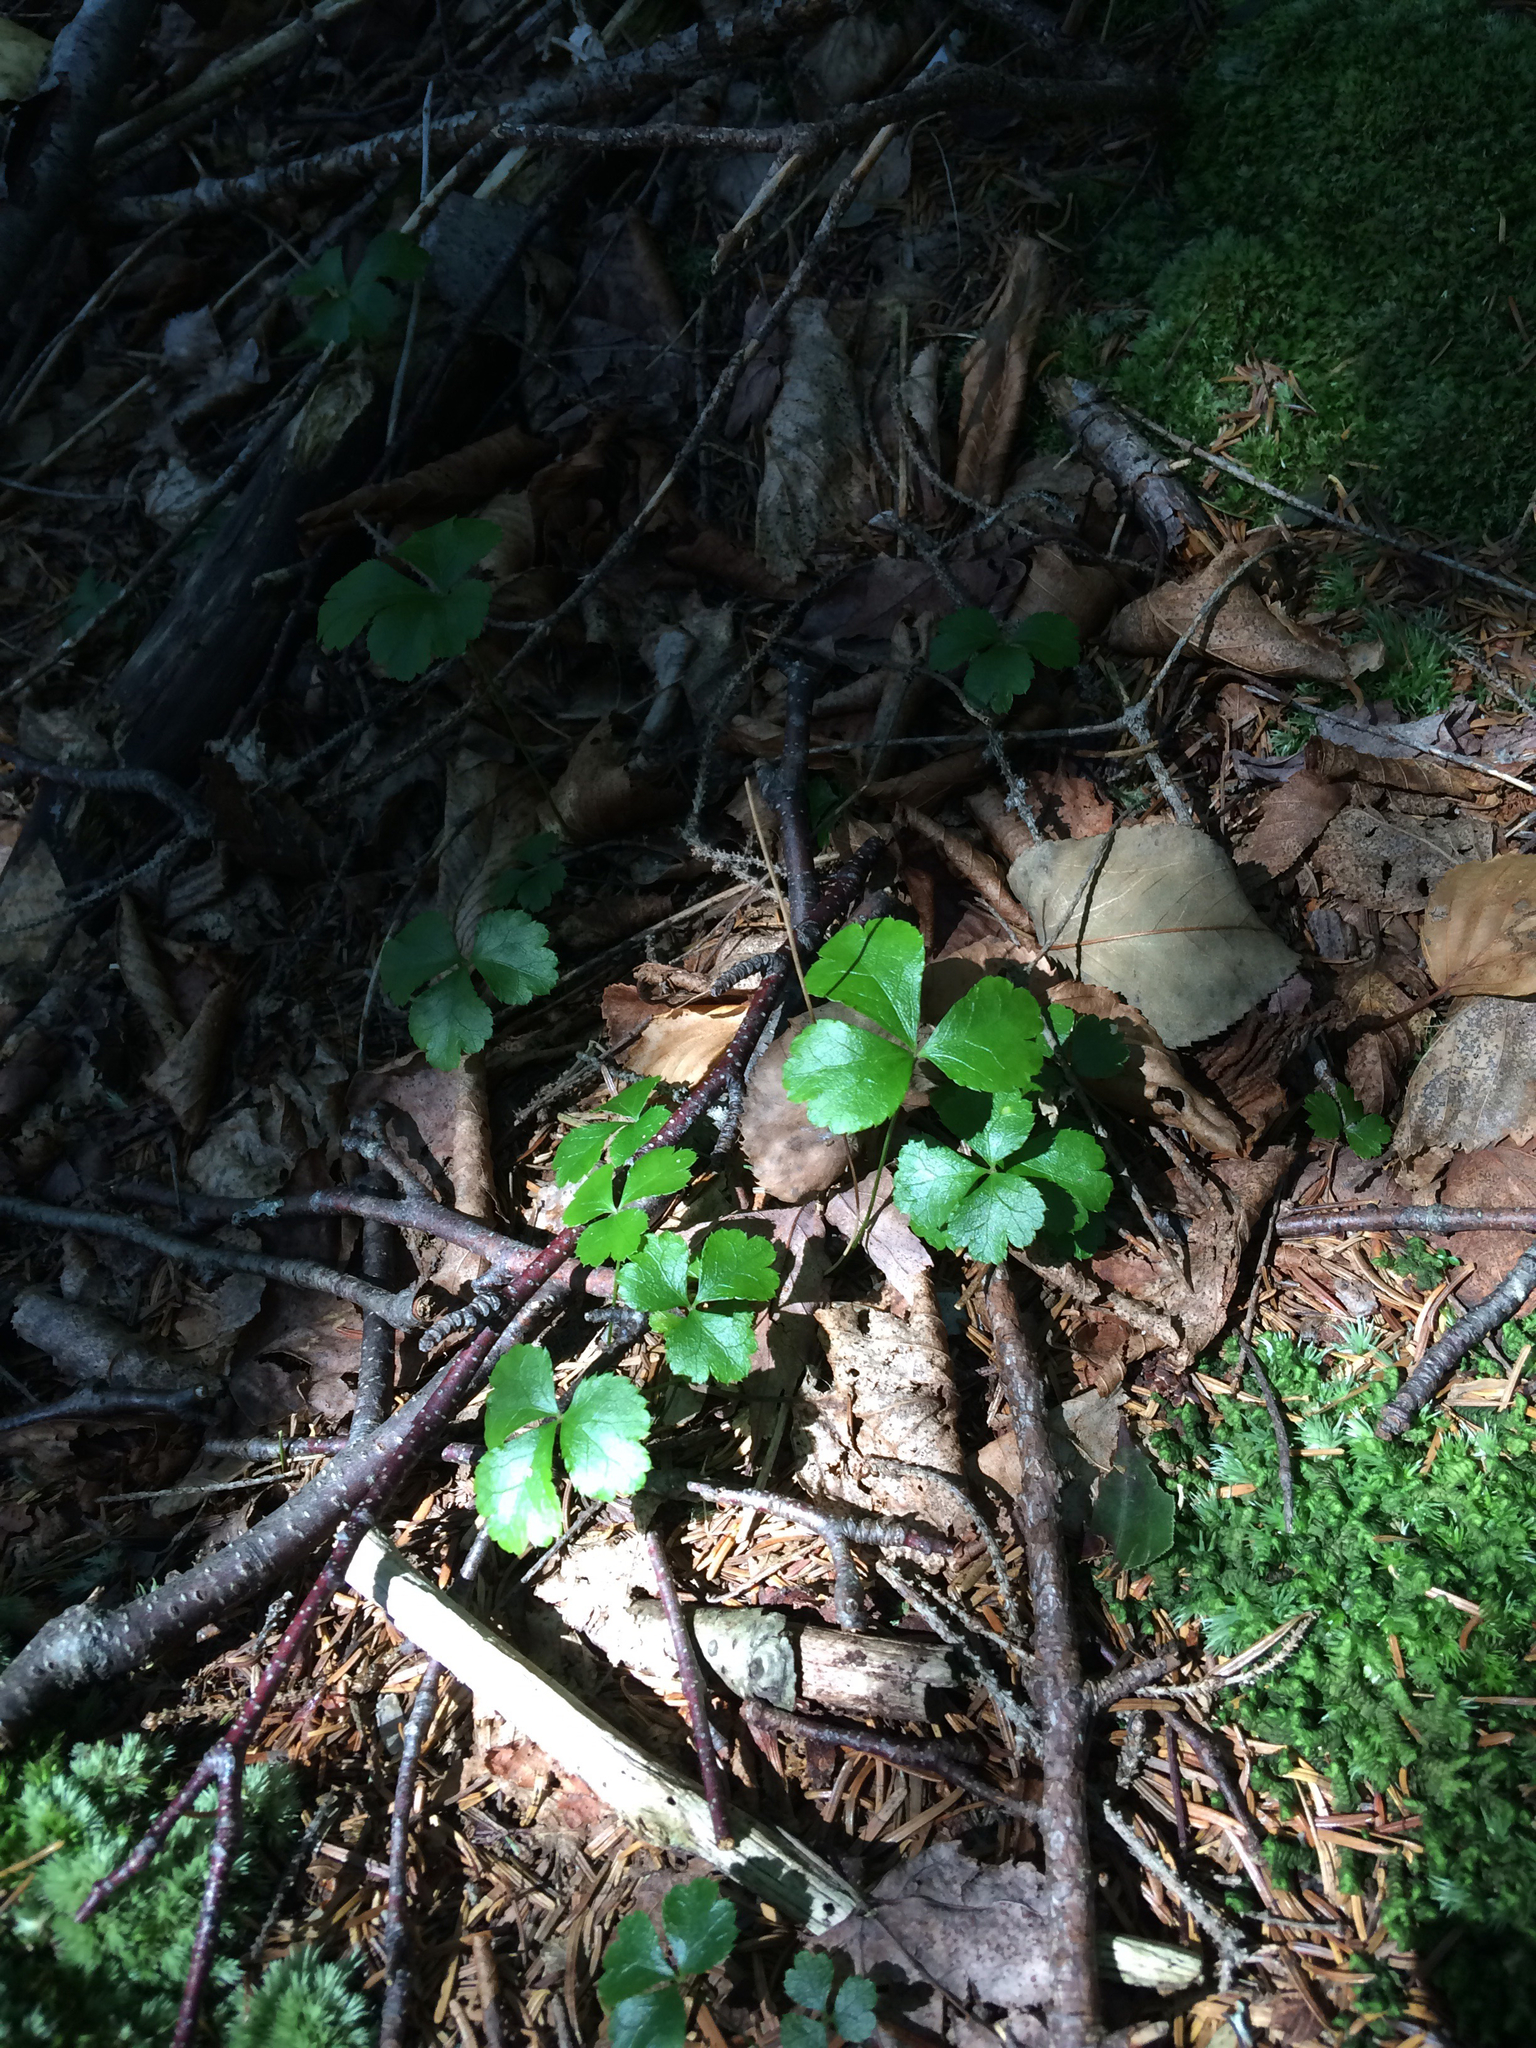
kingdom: Plantae
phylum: Tracheophyta
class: Magnoliopsida
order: Ranunculales
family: Ranunculaceae
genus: Coptis
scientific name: Coptis trifolia
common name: Canker-root
